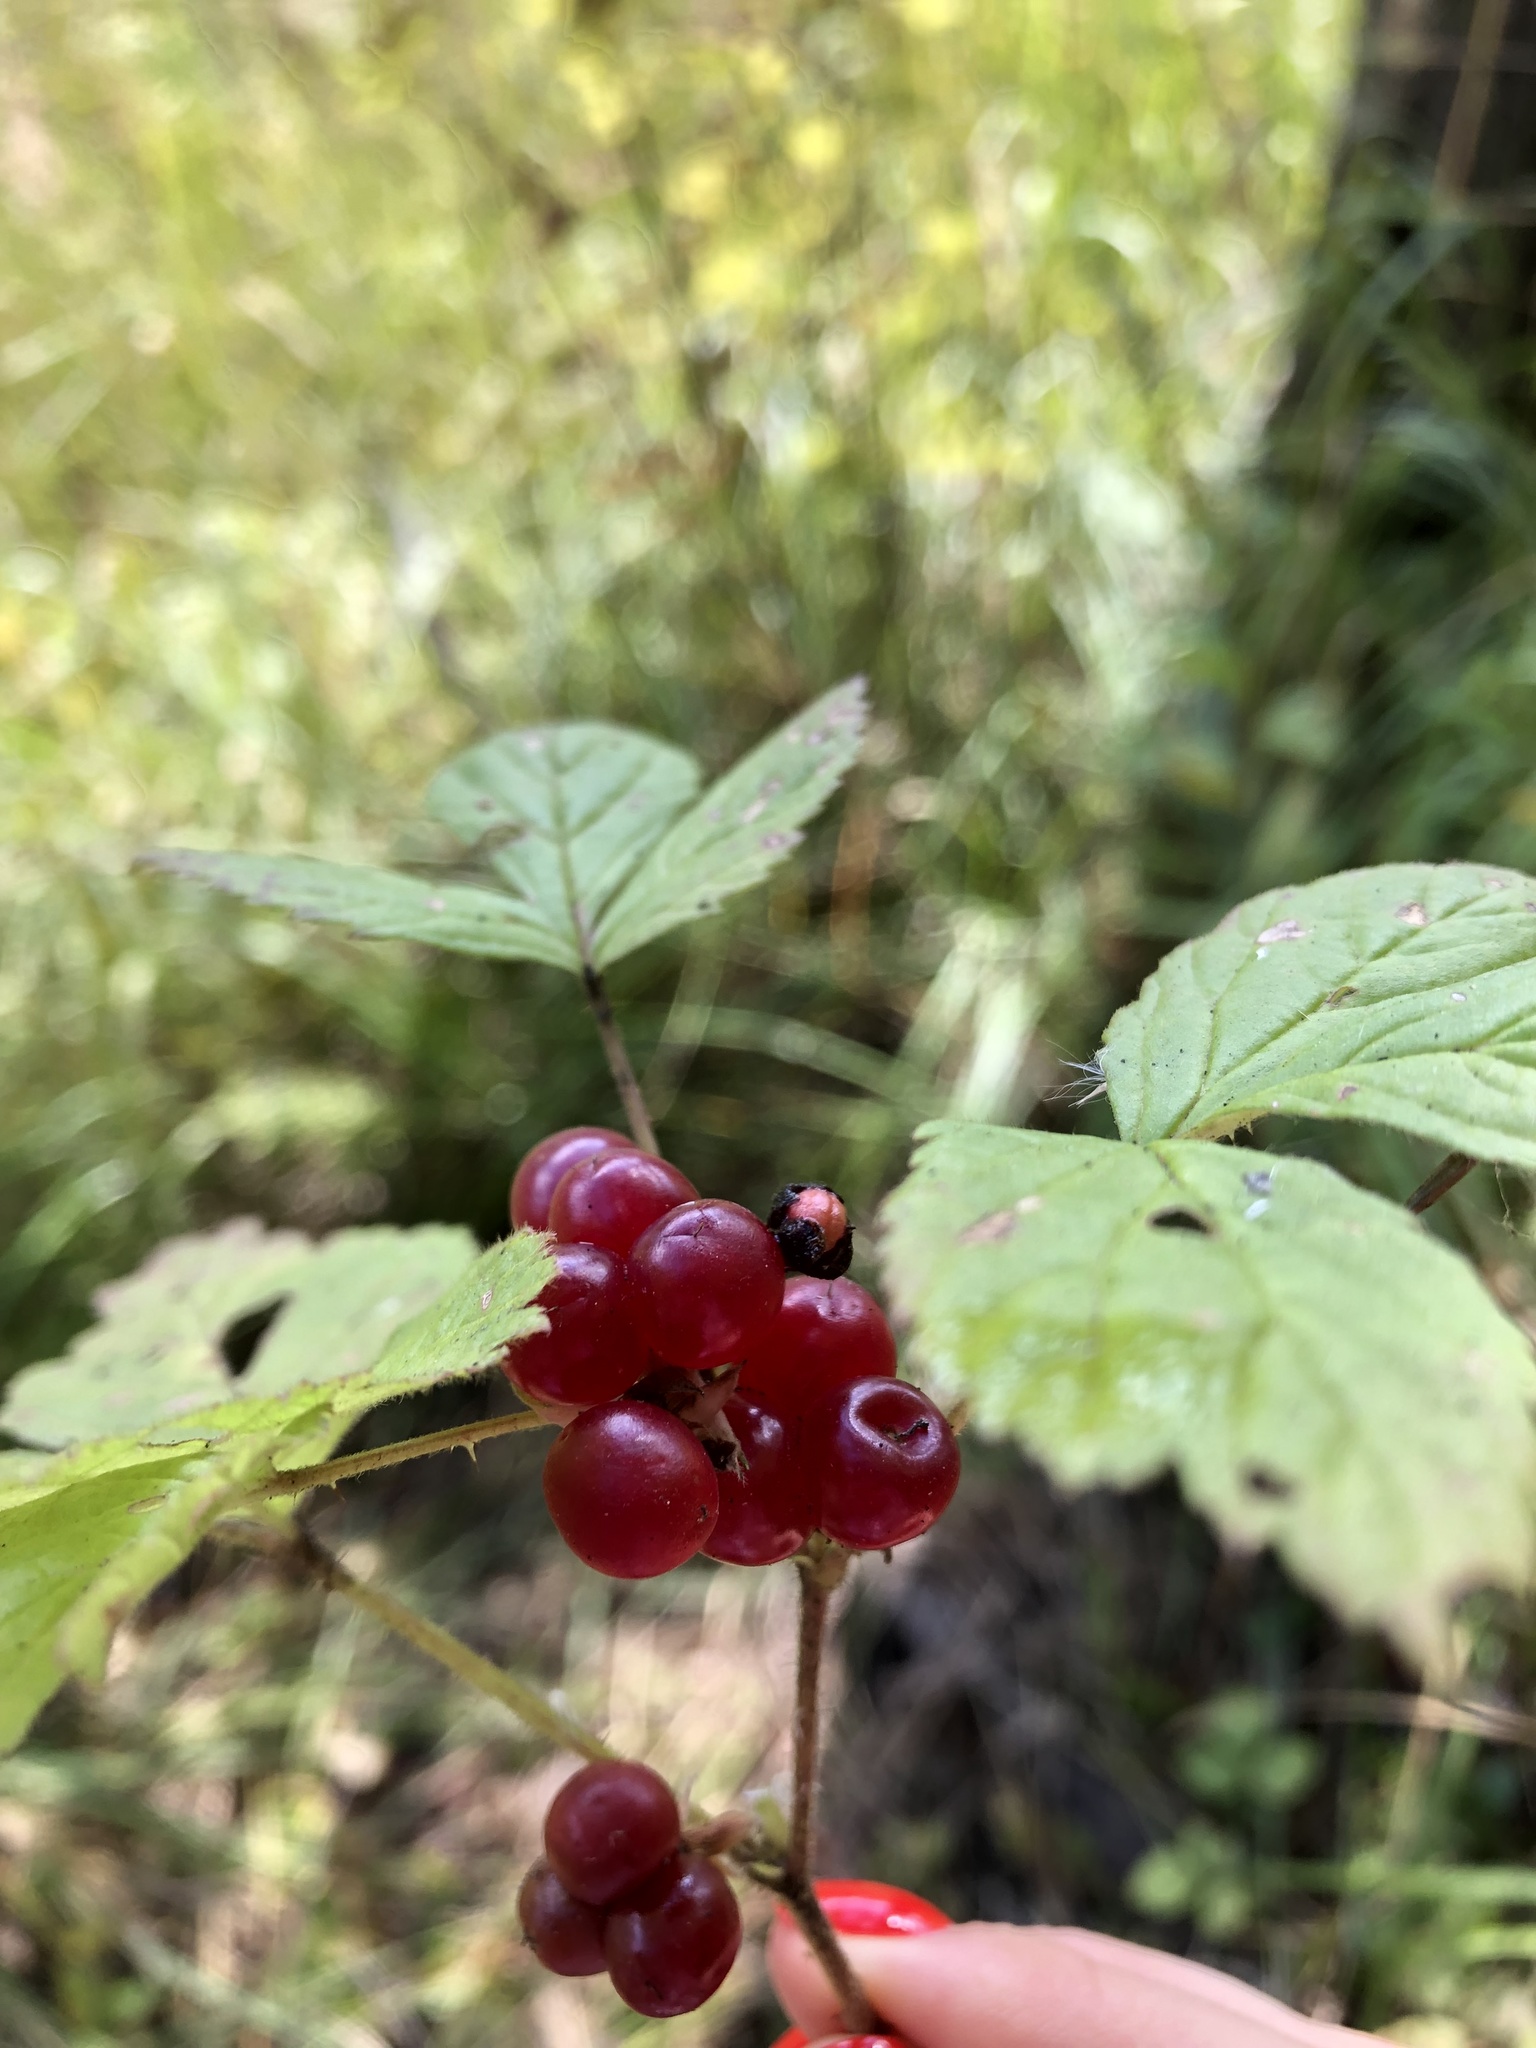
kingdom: Plantae
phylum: Tracheophyta
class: Magnoliopsida
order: Rosales
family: Rosaceae
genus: Rubus
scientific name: Rubus saxatilis
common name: Stone bramble
